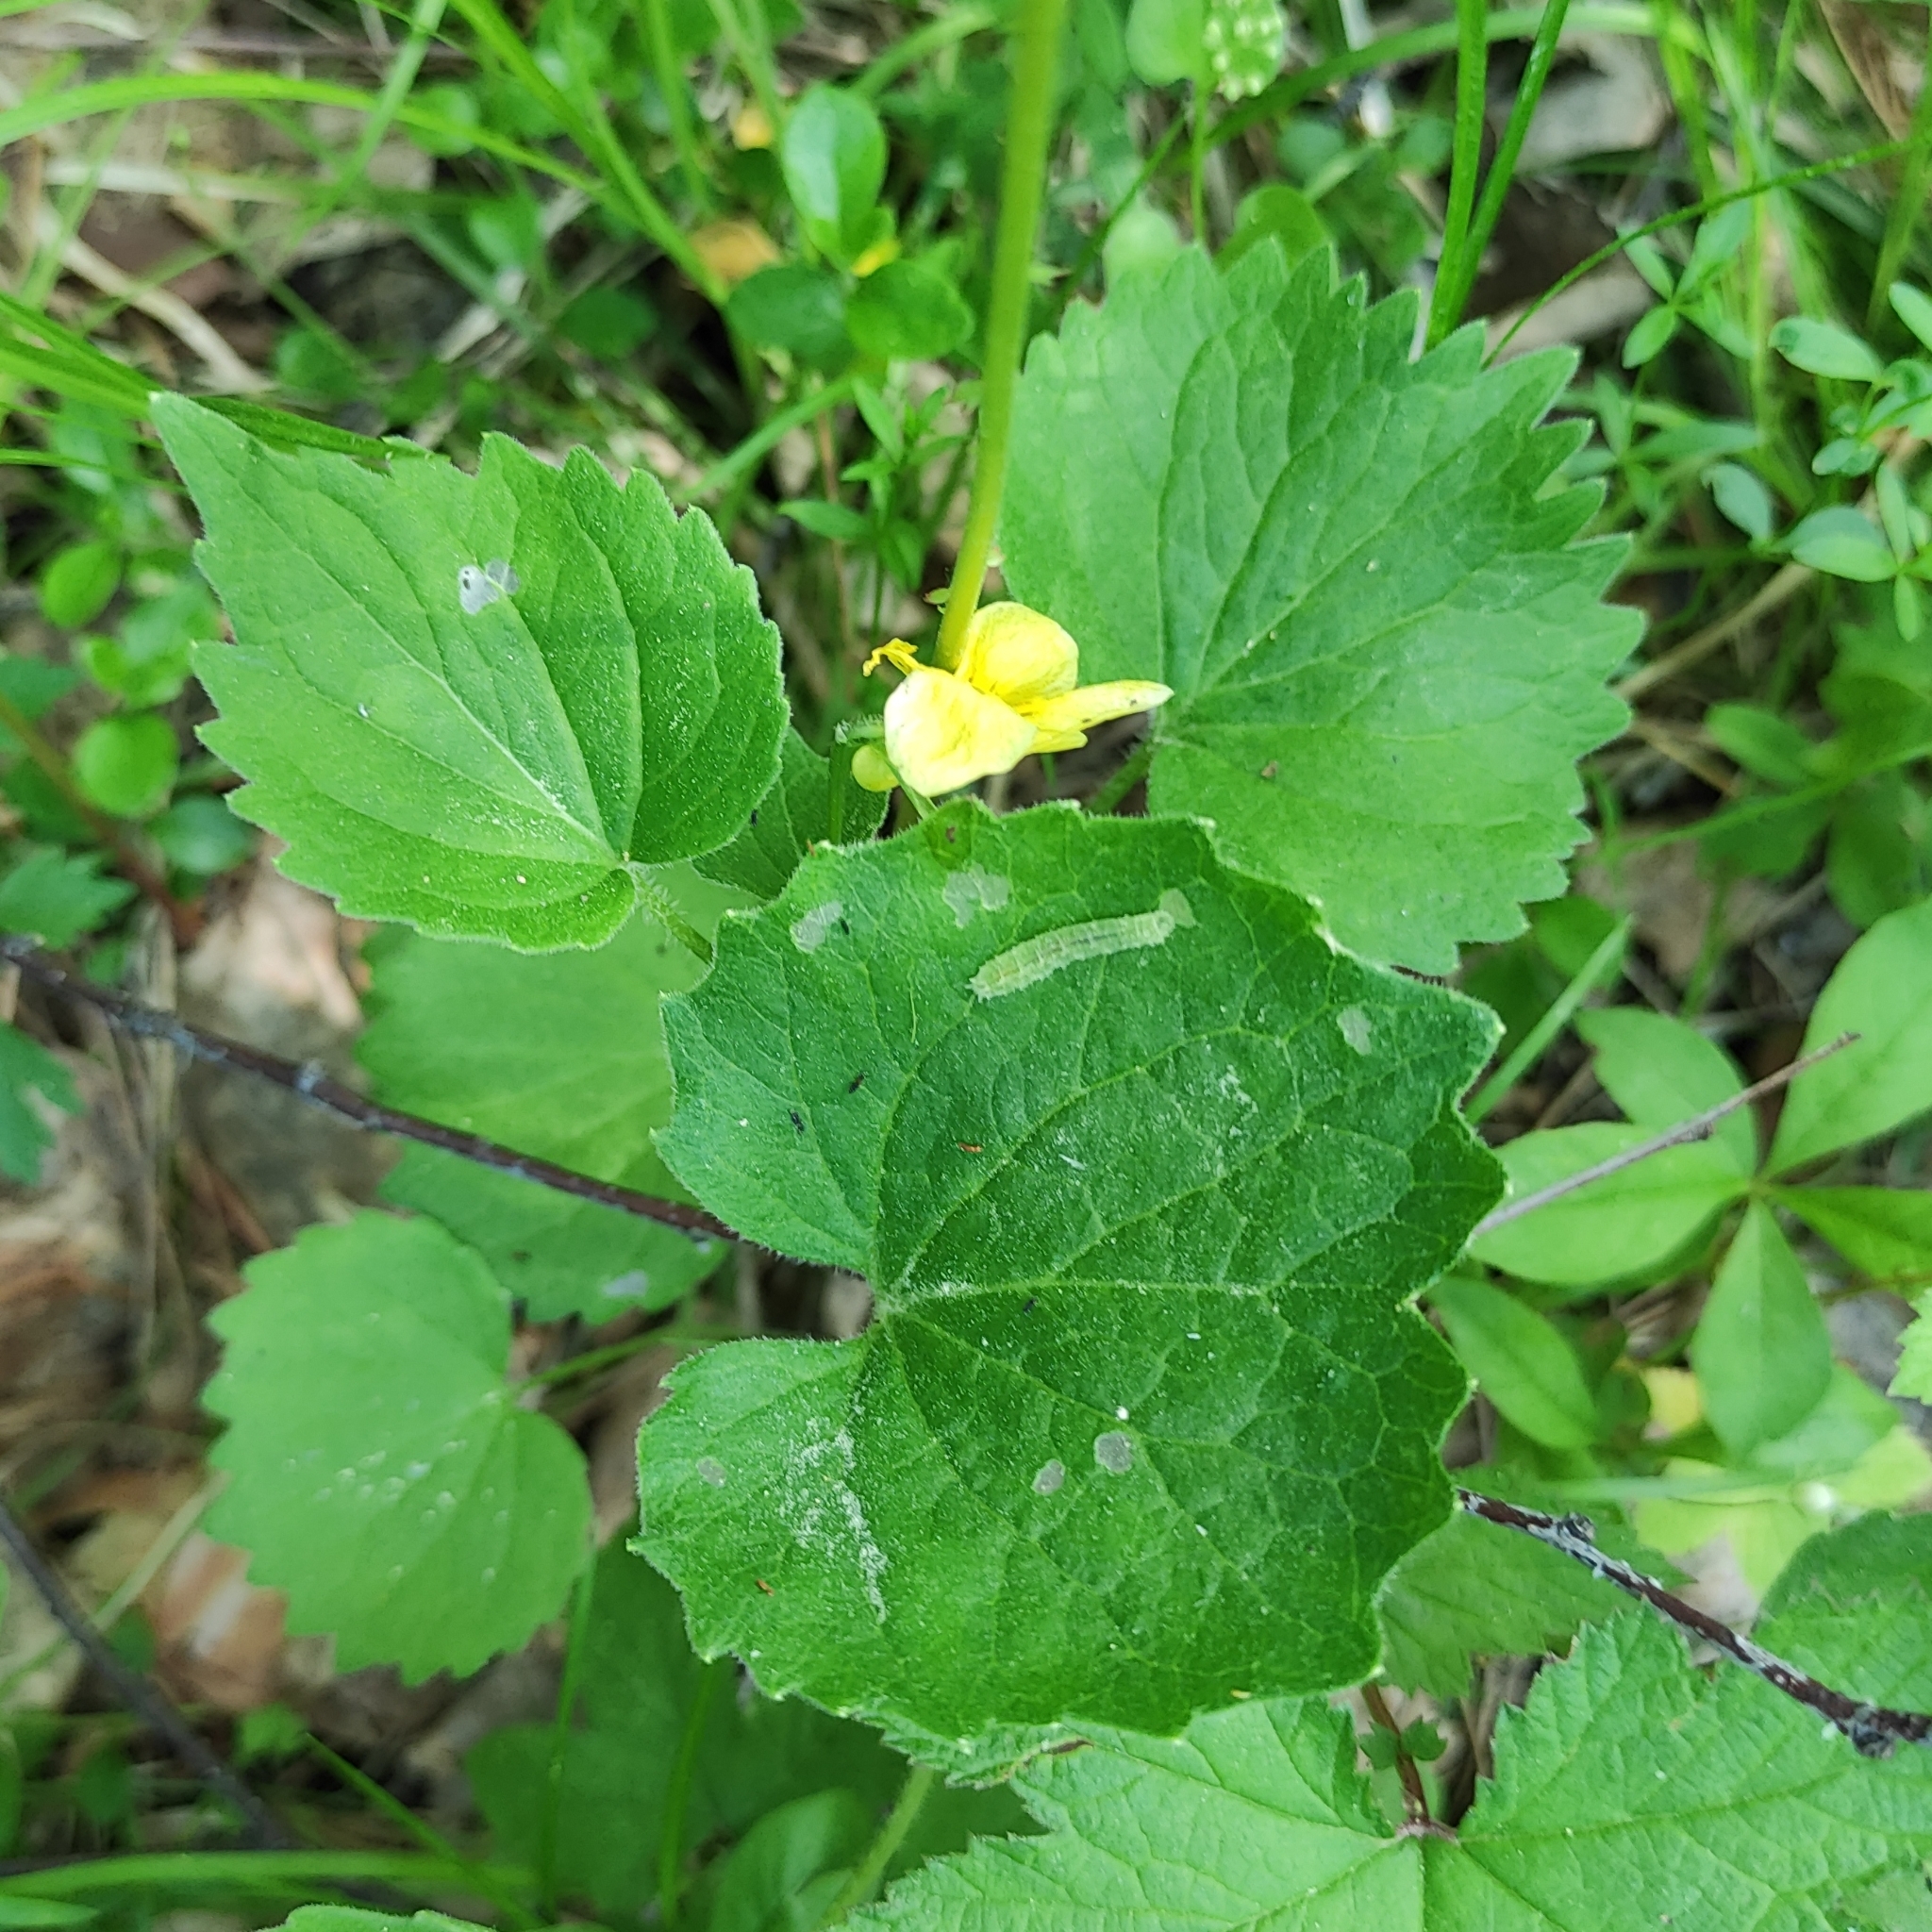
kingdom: Plantae
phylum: Tracheophyta
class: Magnoliopsida
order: Malpighiales
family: Violaceae
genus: Viola
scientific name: Viola uniflora
